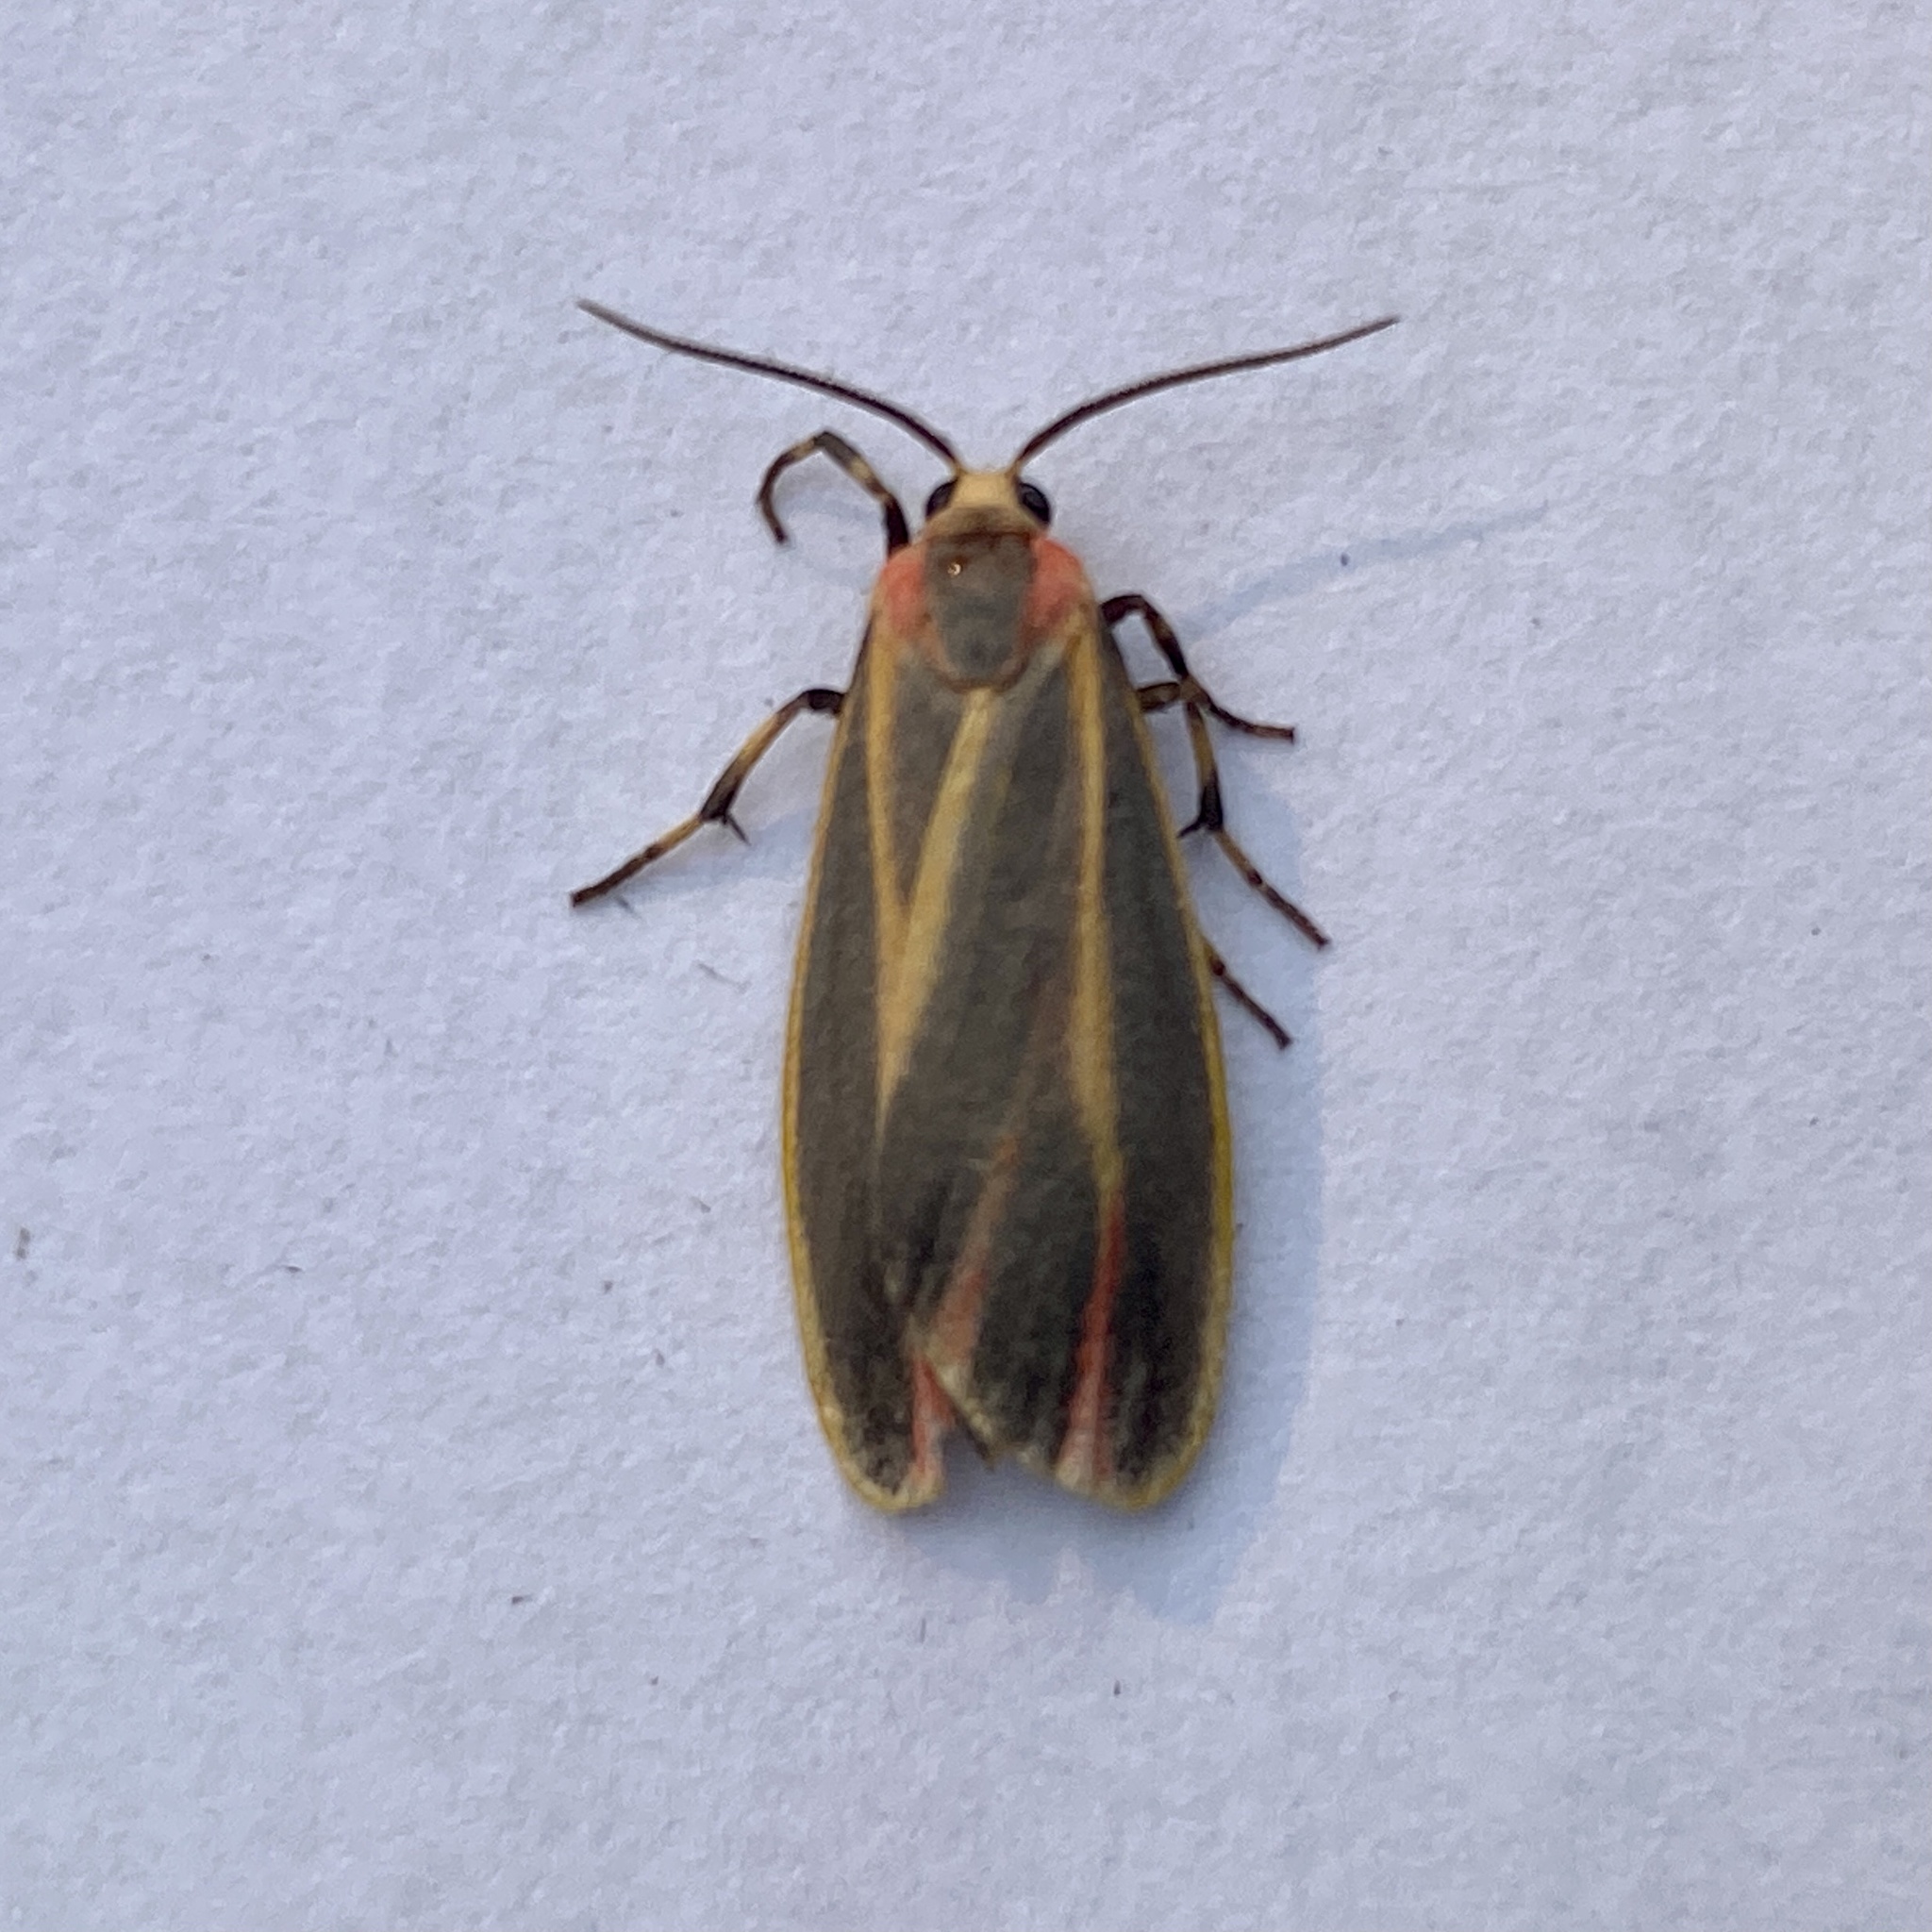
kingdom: Animalia
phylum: Arthropoda
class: Insecta
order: Lepidoptera
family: Erebidae
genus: Hypoprepia
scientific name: Hypoprepia fucosa
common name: Painted lichen moth
